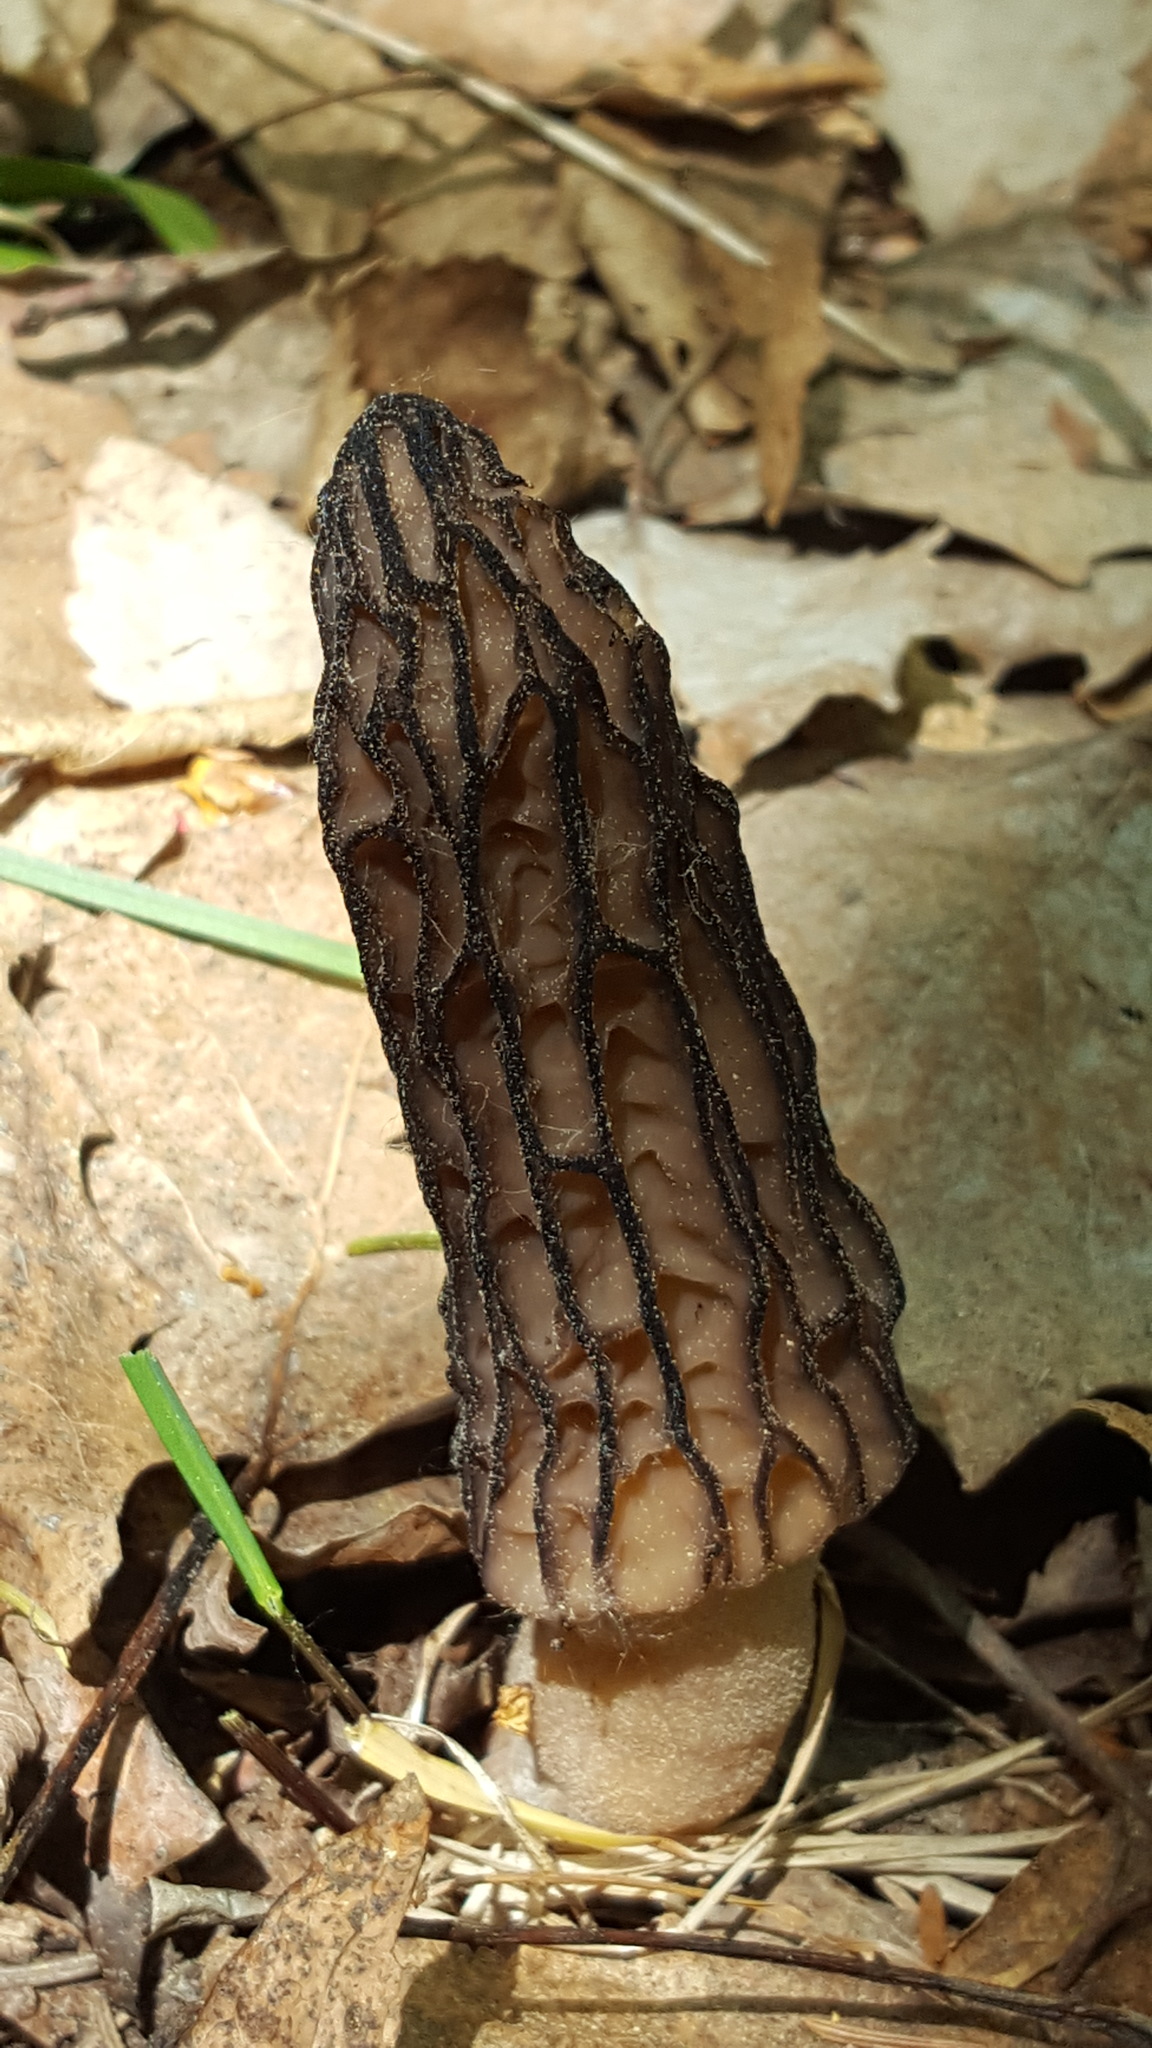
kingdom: Fungi
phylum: Ascomycota
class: Pezizomycetes
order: Pezizales
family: Morchellaceae
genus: Morchella
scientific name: Morchella angusticeps
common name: Black morel
